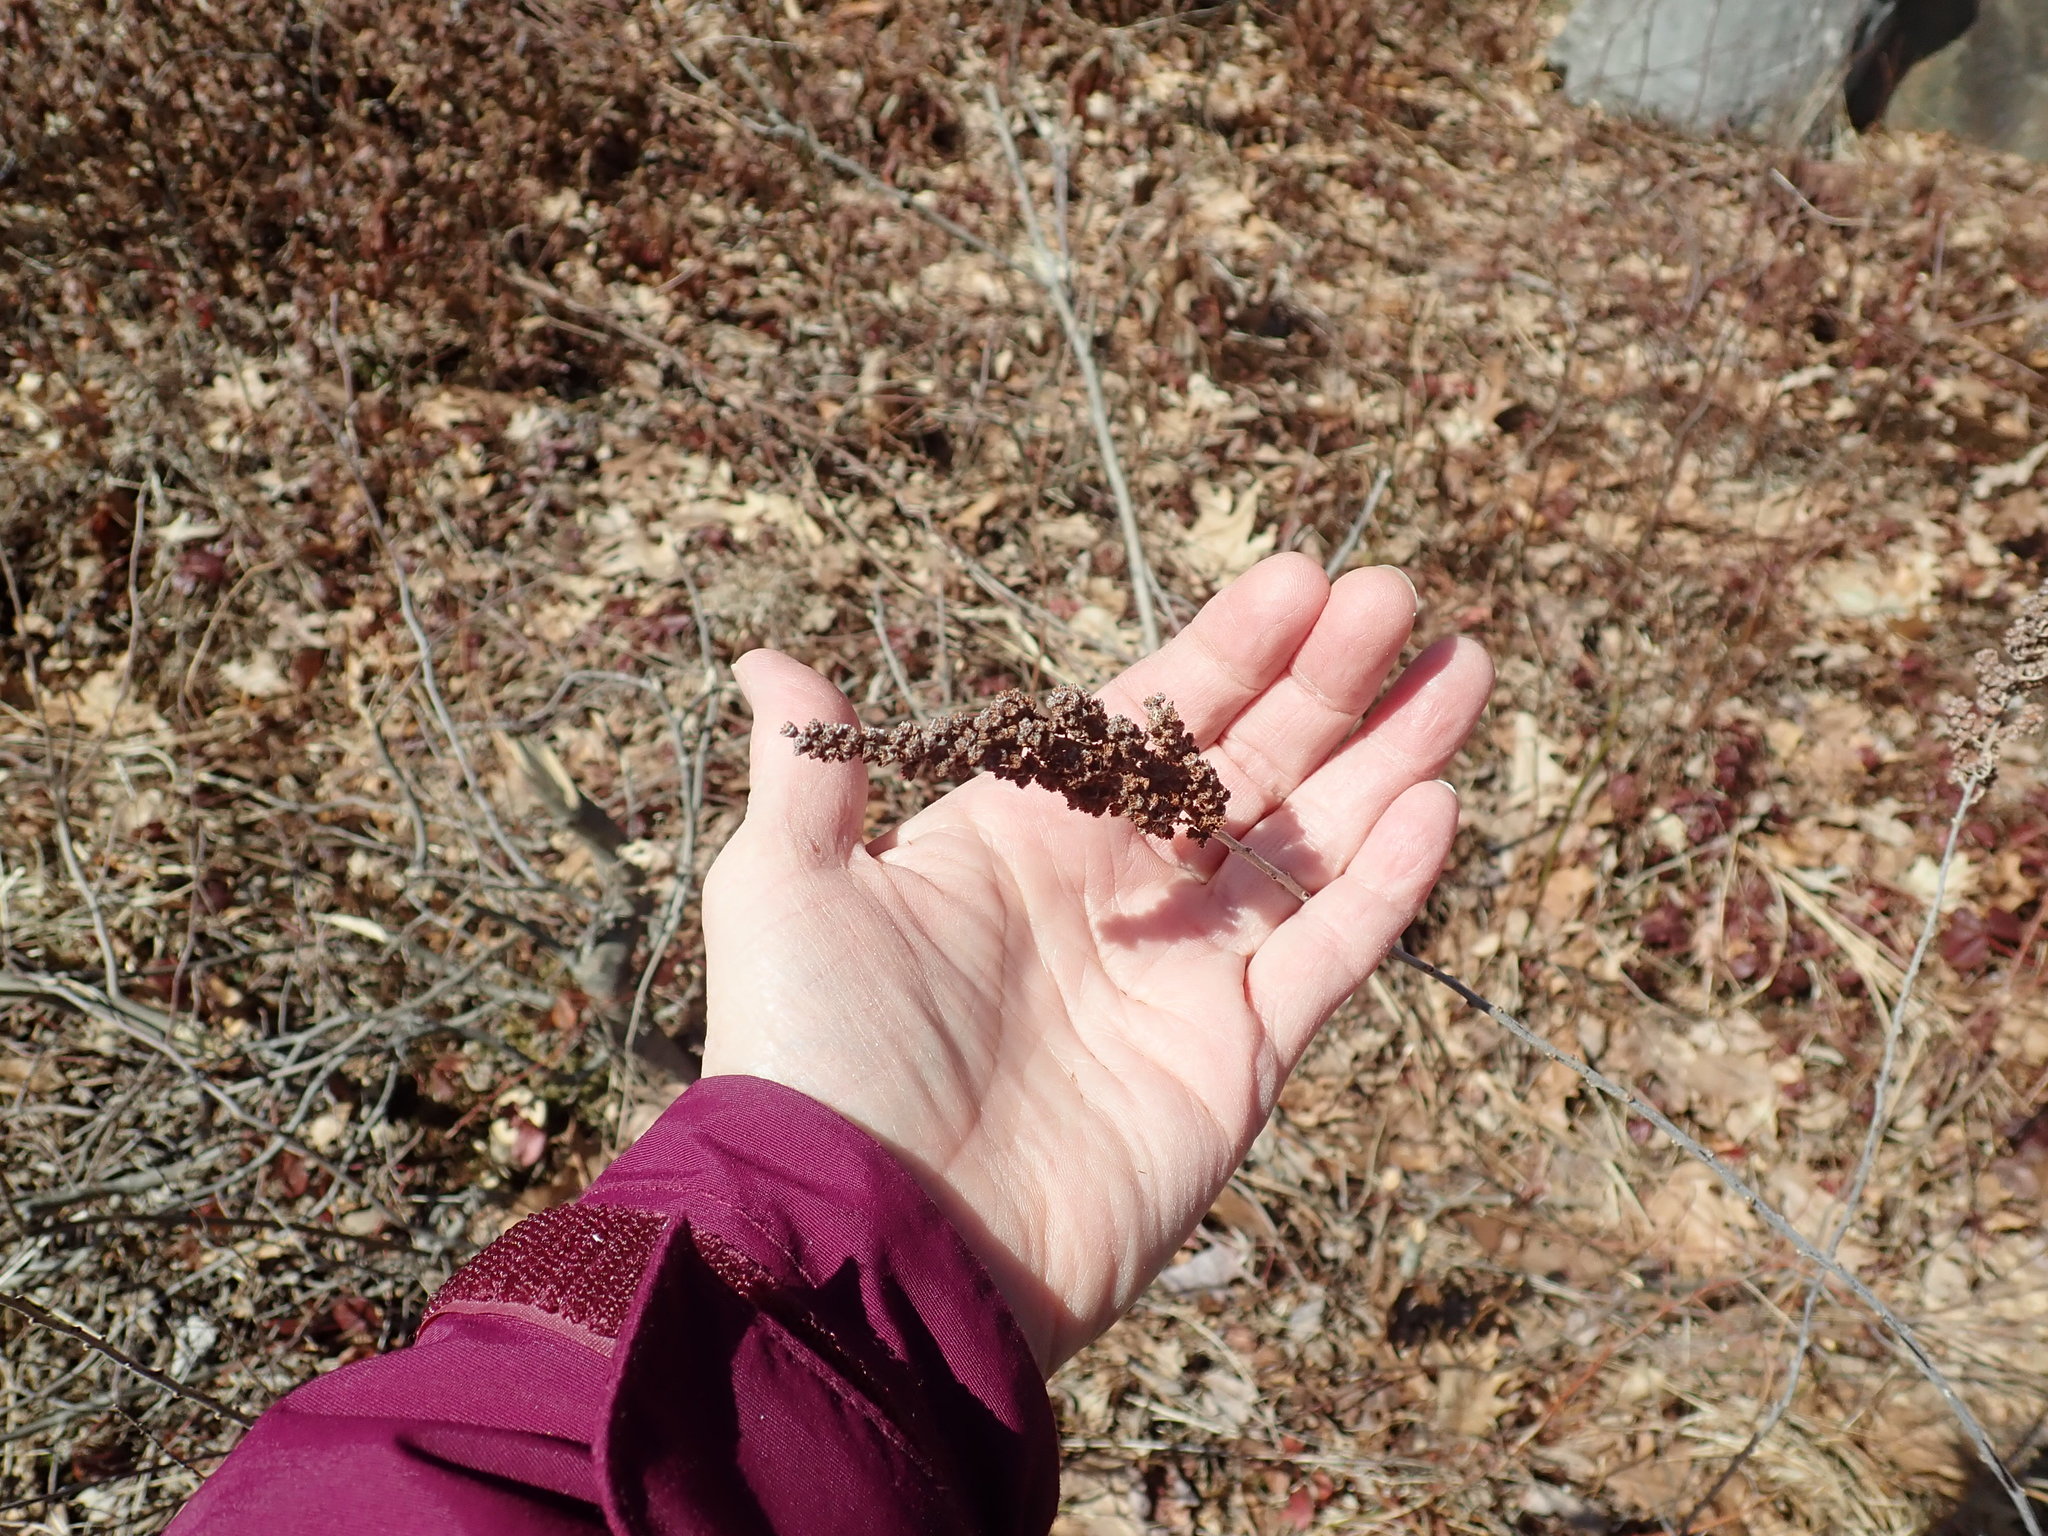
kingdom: Plantae
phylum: Tracheophyta
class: Magnoliopsida
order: Rosales
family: Rosaceae
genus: Spiraea
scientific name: Spiraea tomentosa
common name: Hardhack
